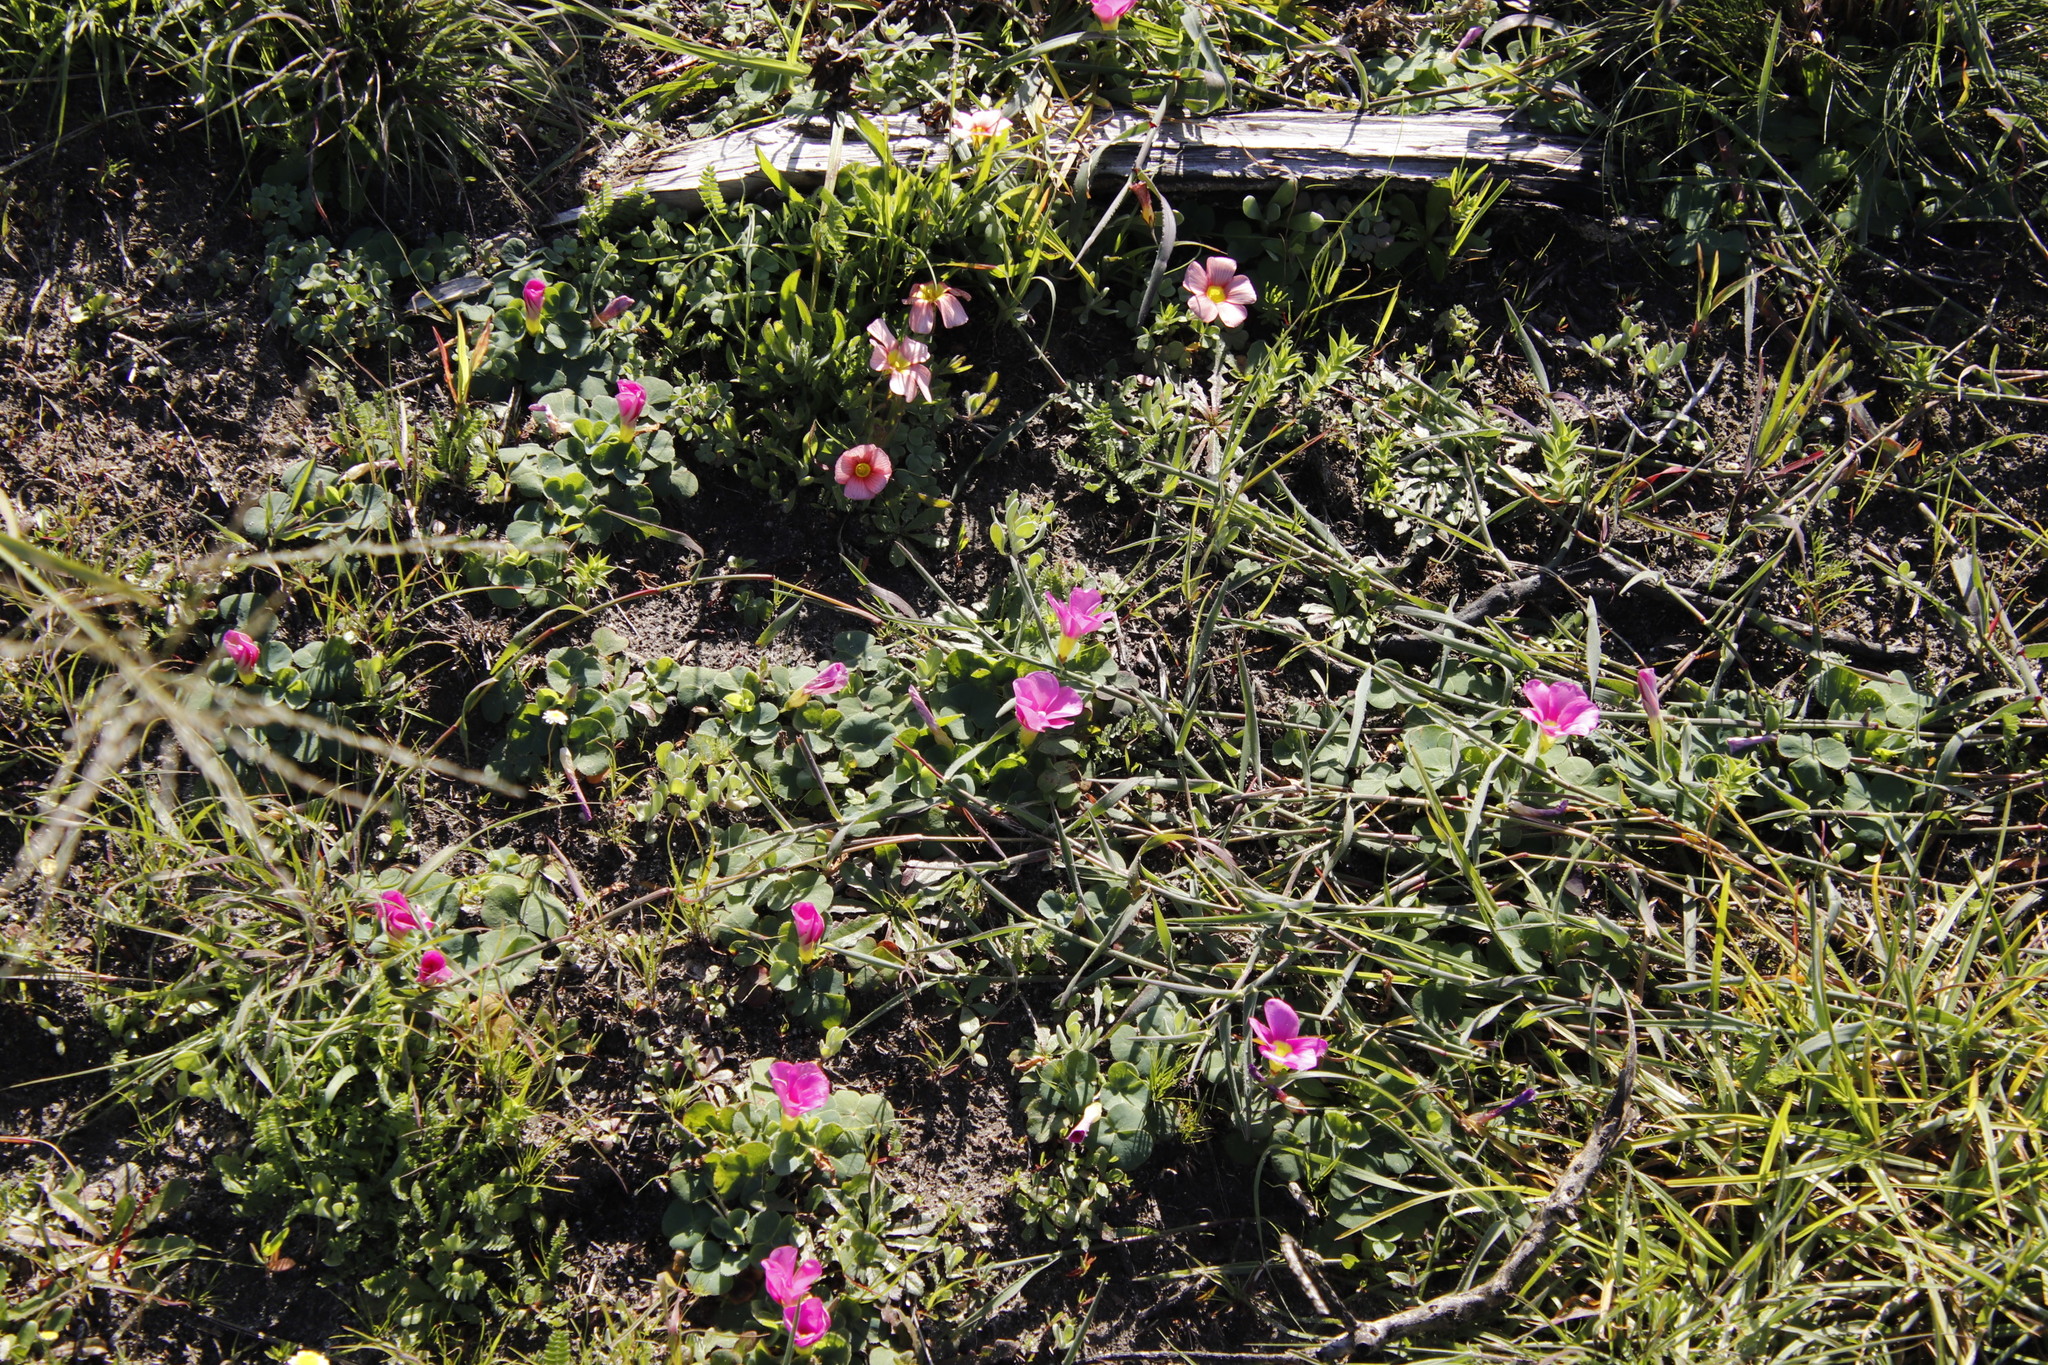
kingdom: Plantae
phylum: Tracheophyta
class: Magnoliopsida
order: Oxalidales
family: Oxalidaceae
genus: Oxalis
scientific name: Oxalis purpurea
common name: Purple woodsorrel
